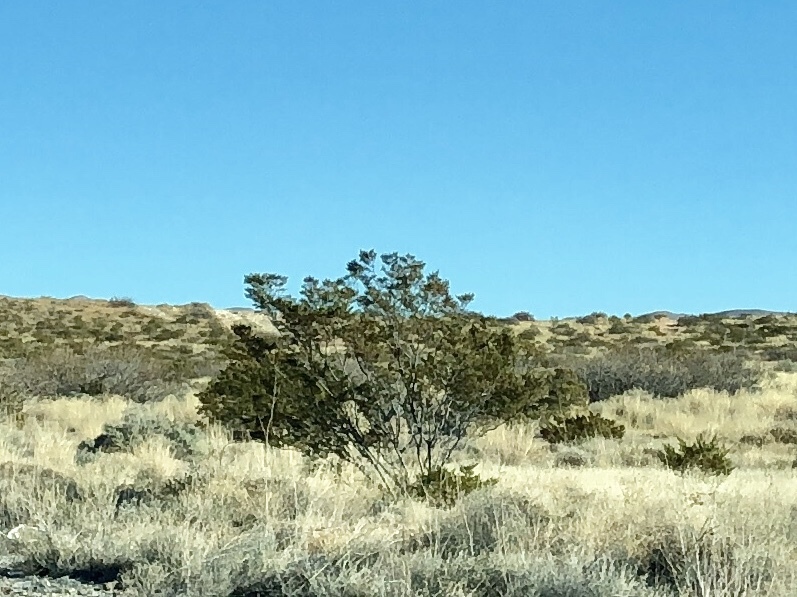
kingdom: Plantae
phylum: Tracheophyta
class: Magnoliopsida
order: Zygophyllales
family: Zygophyllaceae
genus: Larrea
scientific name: Larrea tridentata
